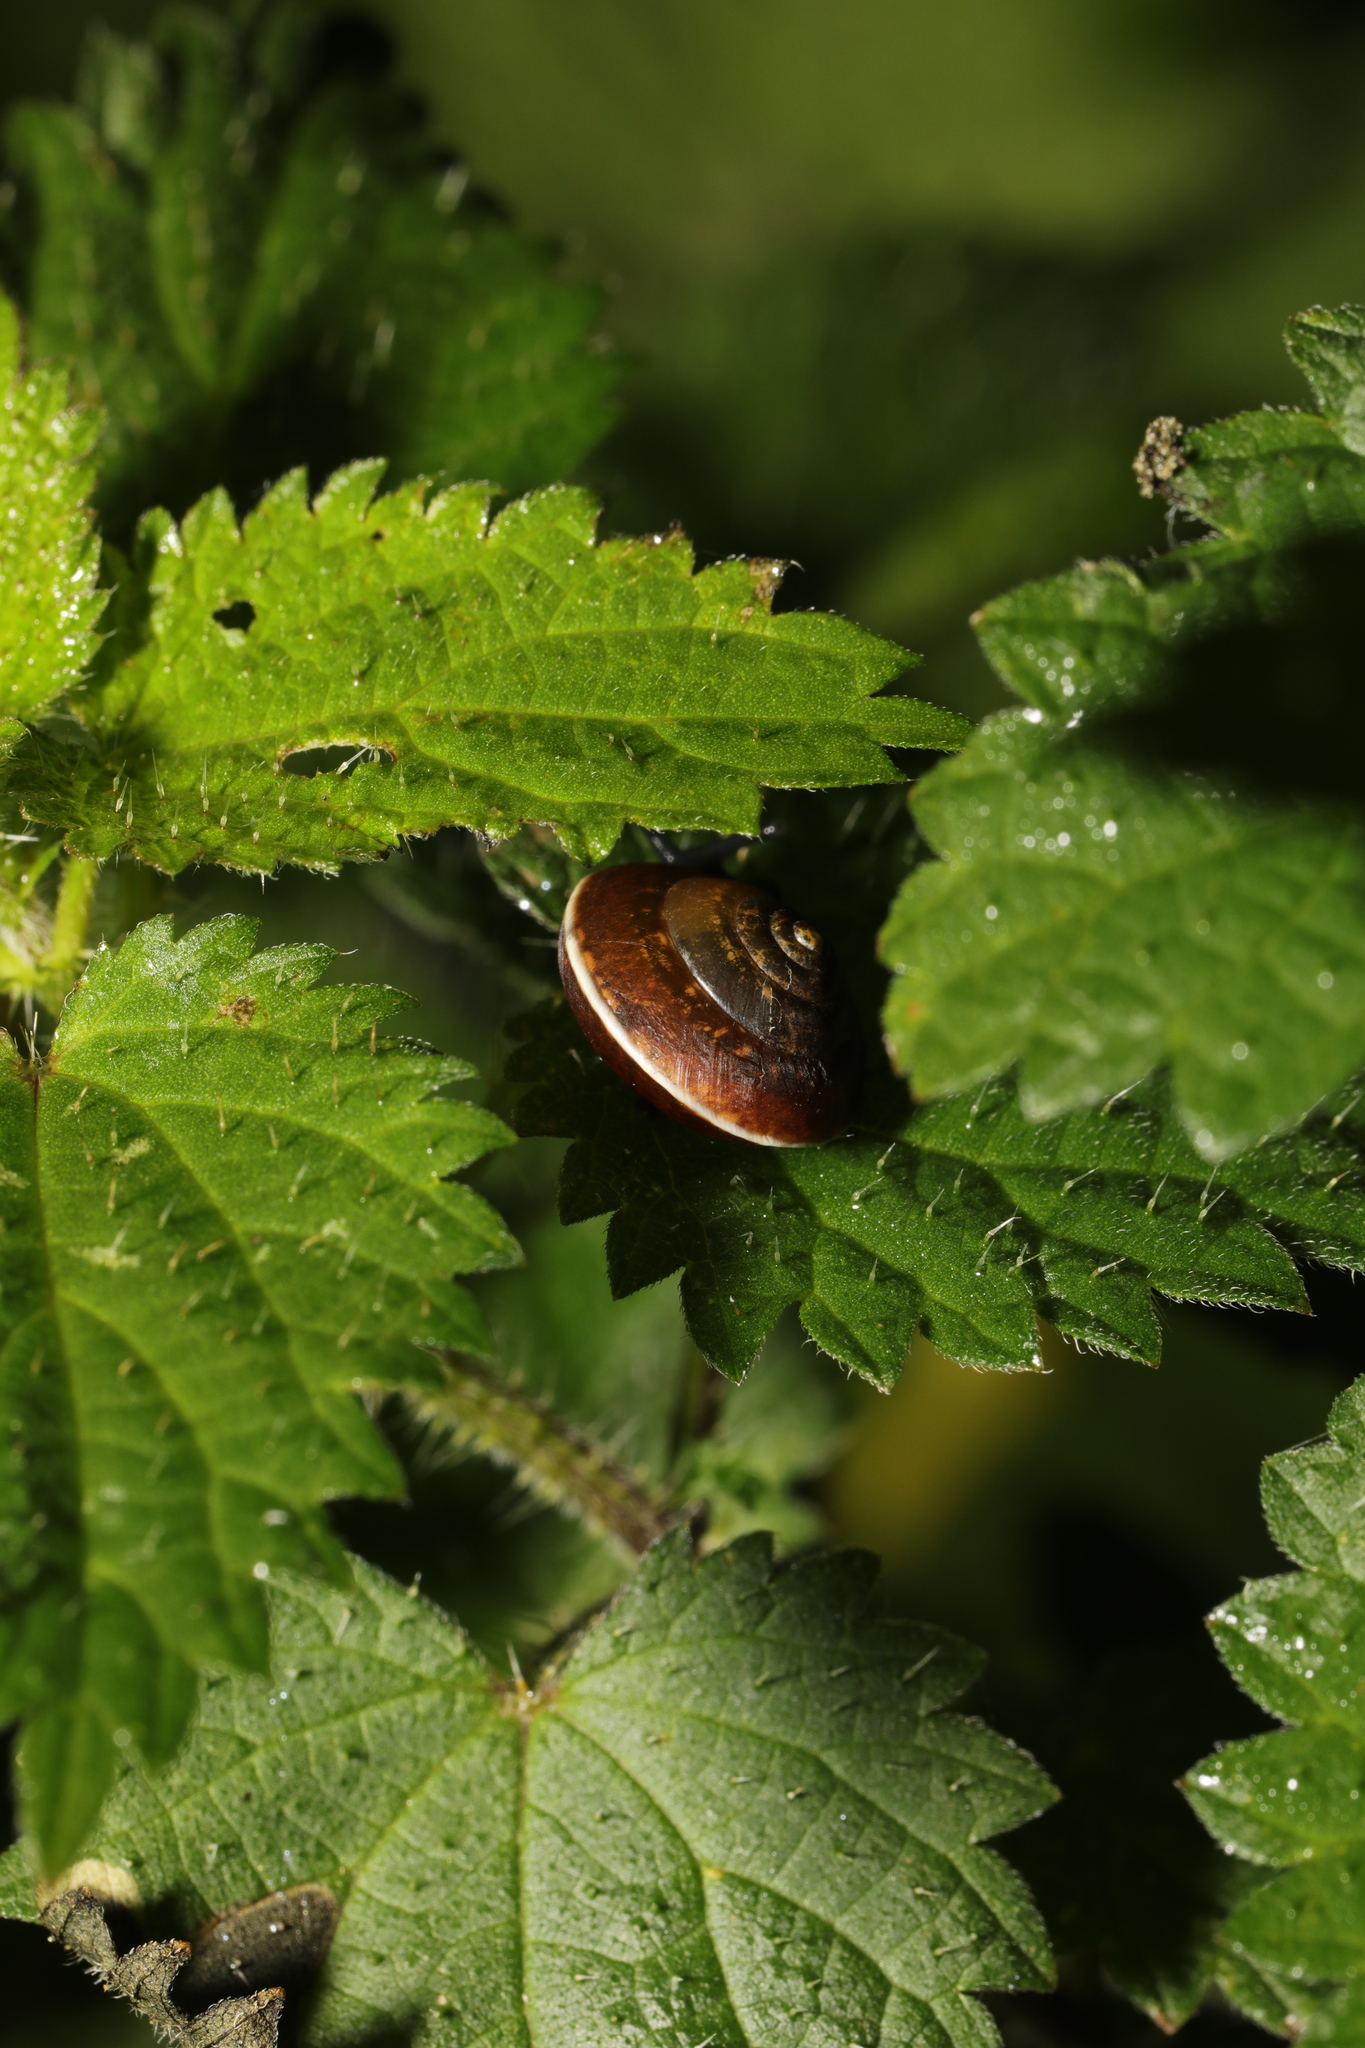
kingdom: Animalia
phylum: Mollusca
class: Gastropoda
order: Stylommatophora
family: Hygromiidae
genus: Hygromia
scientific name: Hygromia cinctella
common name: Girdled snail
